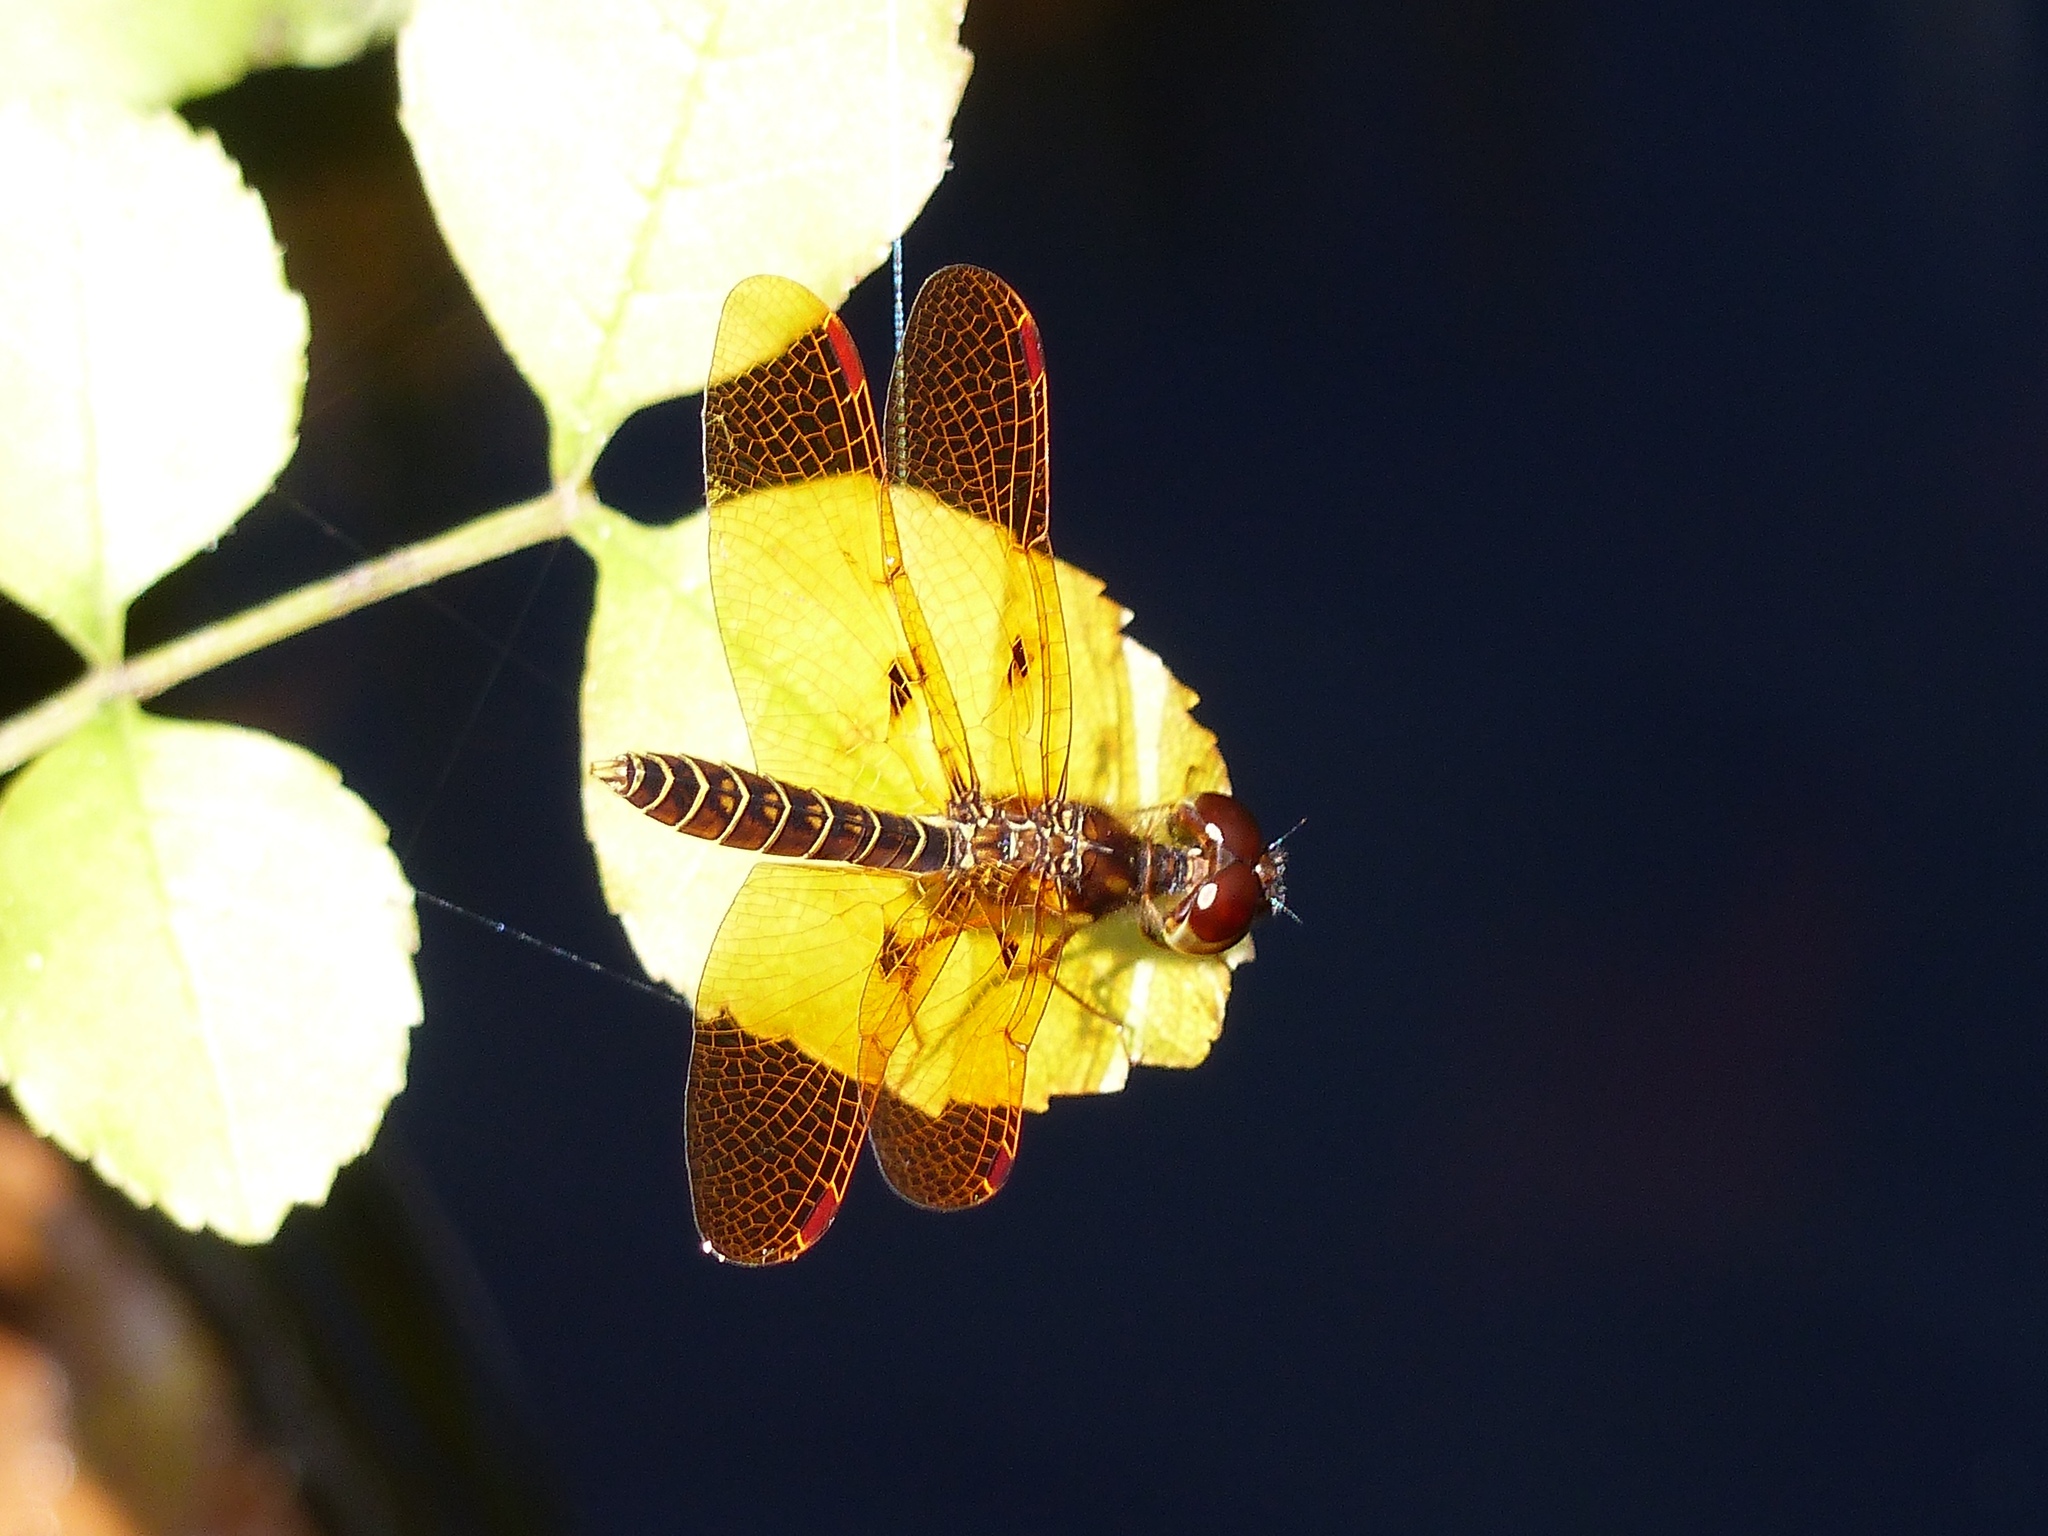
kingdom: Animalia
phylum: Arthropoda
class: Insecta
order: Odonata
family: Libellulidae
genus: Perithemis
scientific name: Perithemis tenera
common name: Eastern amberwing
